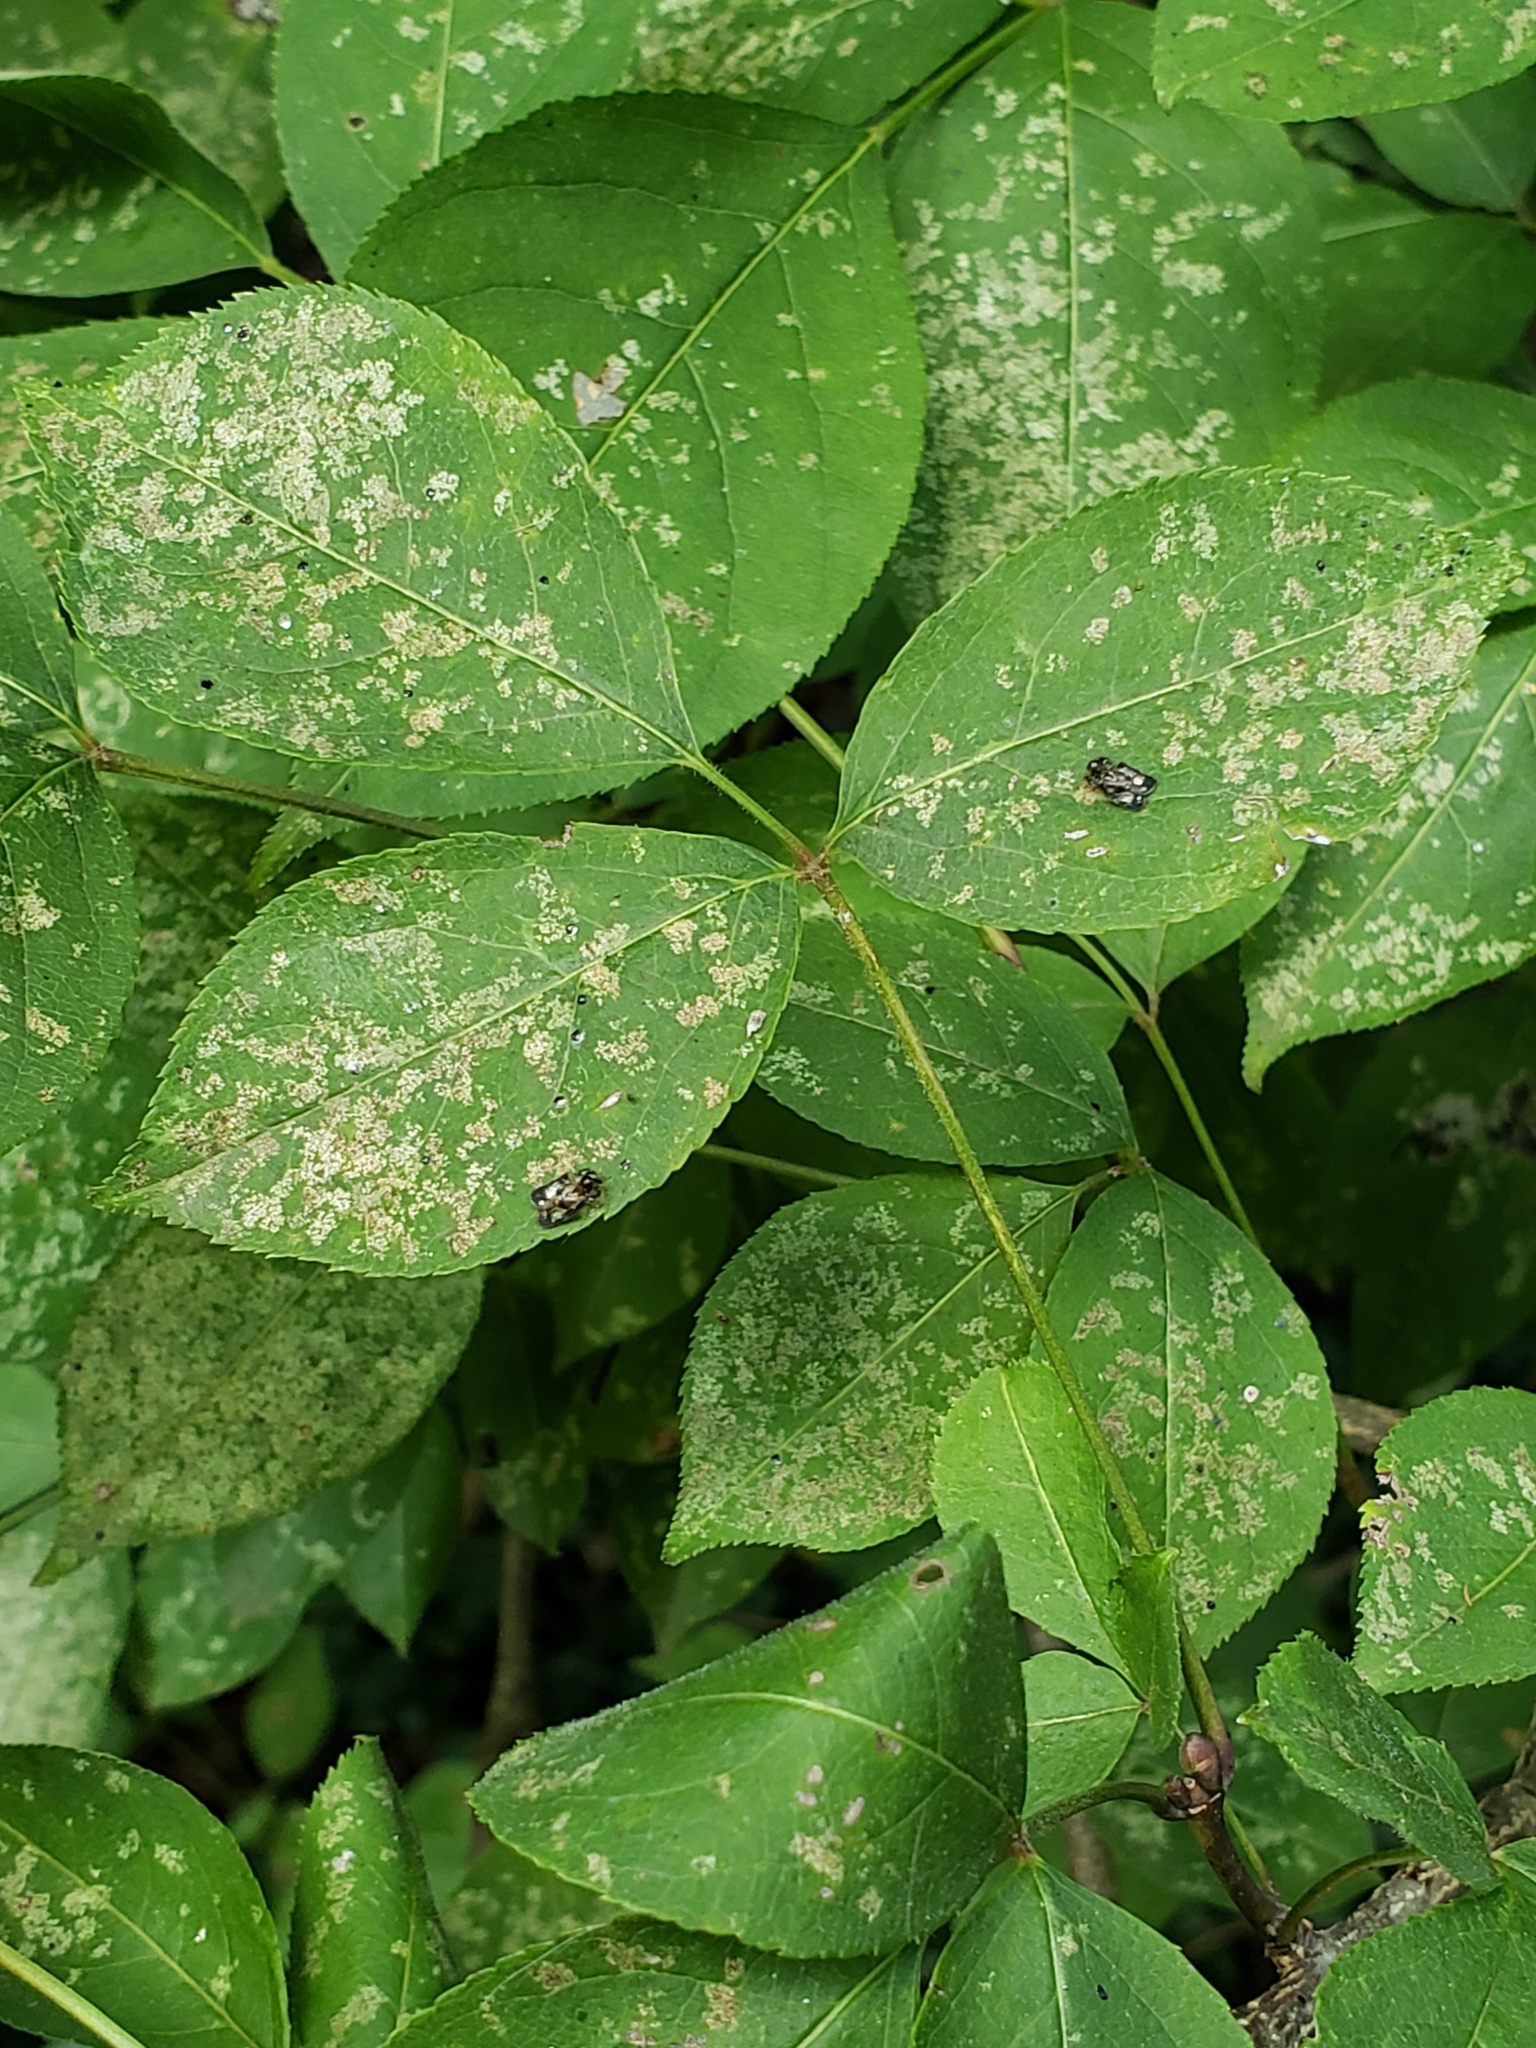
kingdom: Plantae
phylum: Tracheophyta
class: Magnoliopsida
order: Crossosomatales
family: Staphyleaceae
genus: Staphylea
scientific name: Staphylea trifolia
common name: American bladdernut
